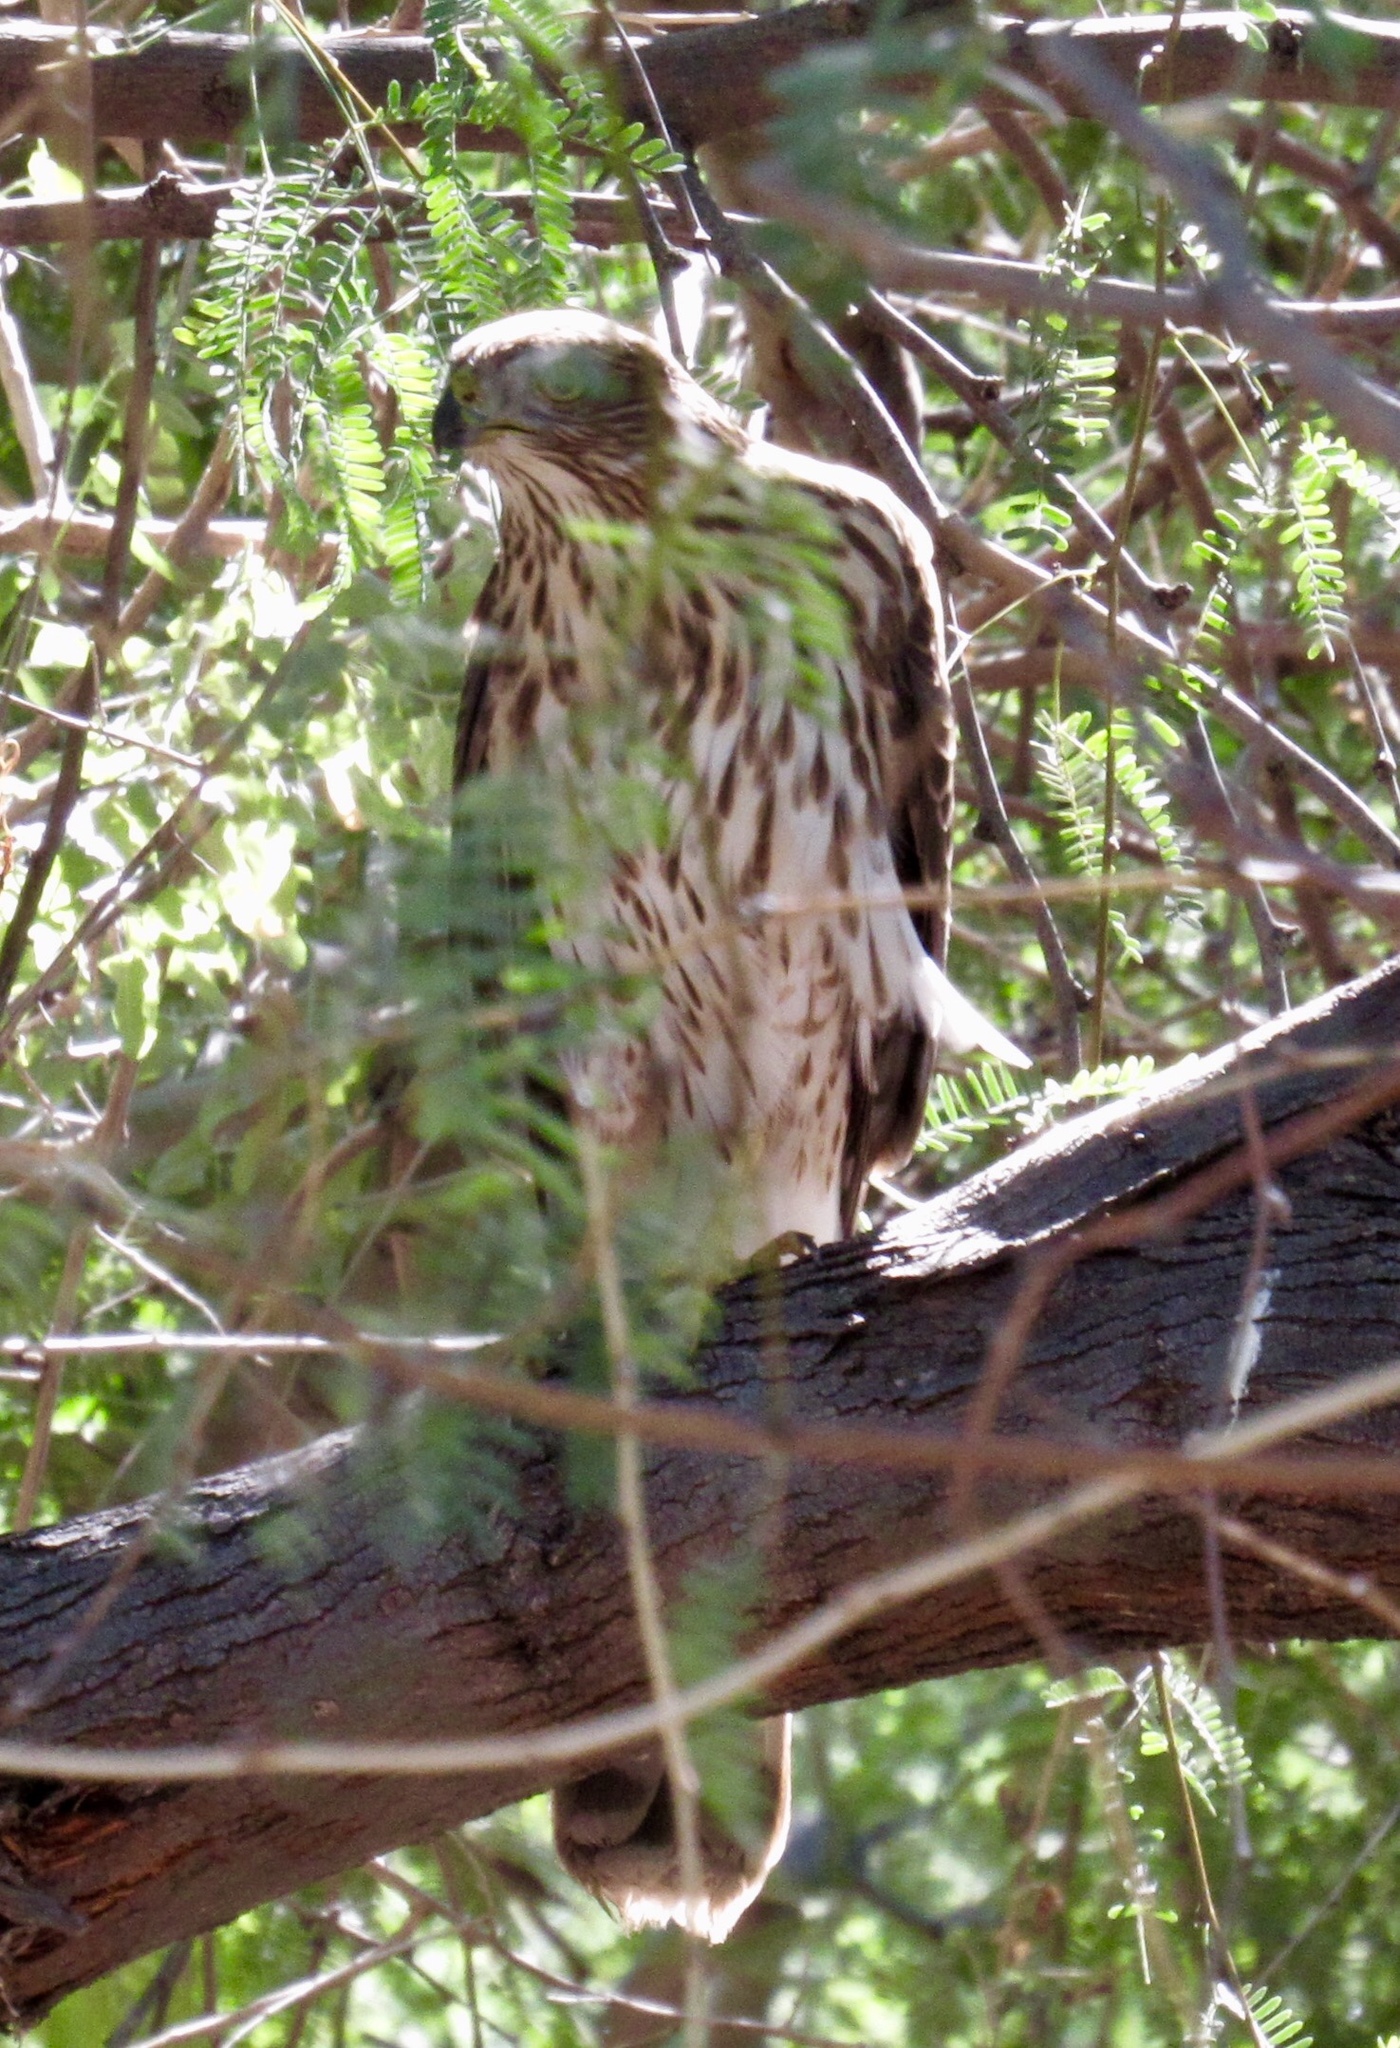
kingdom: Animalia
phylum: Chordata
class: Aves
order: Accipitriformes
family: Accipitridae
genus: Accipiter
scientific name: Accipiter cooperii
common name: Cooper's hawk
